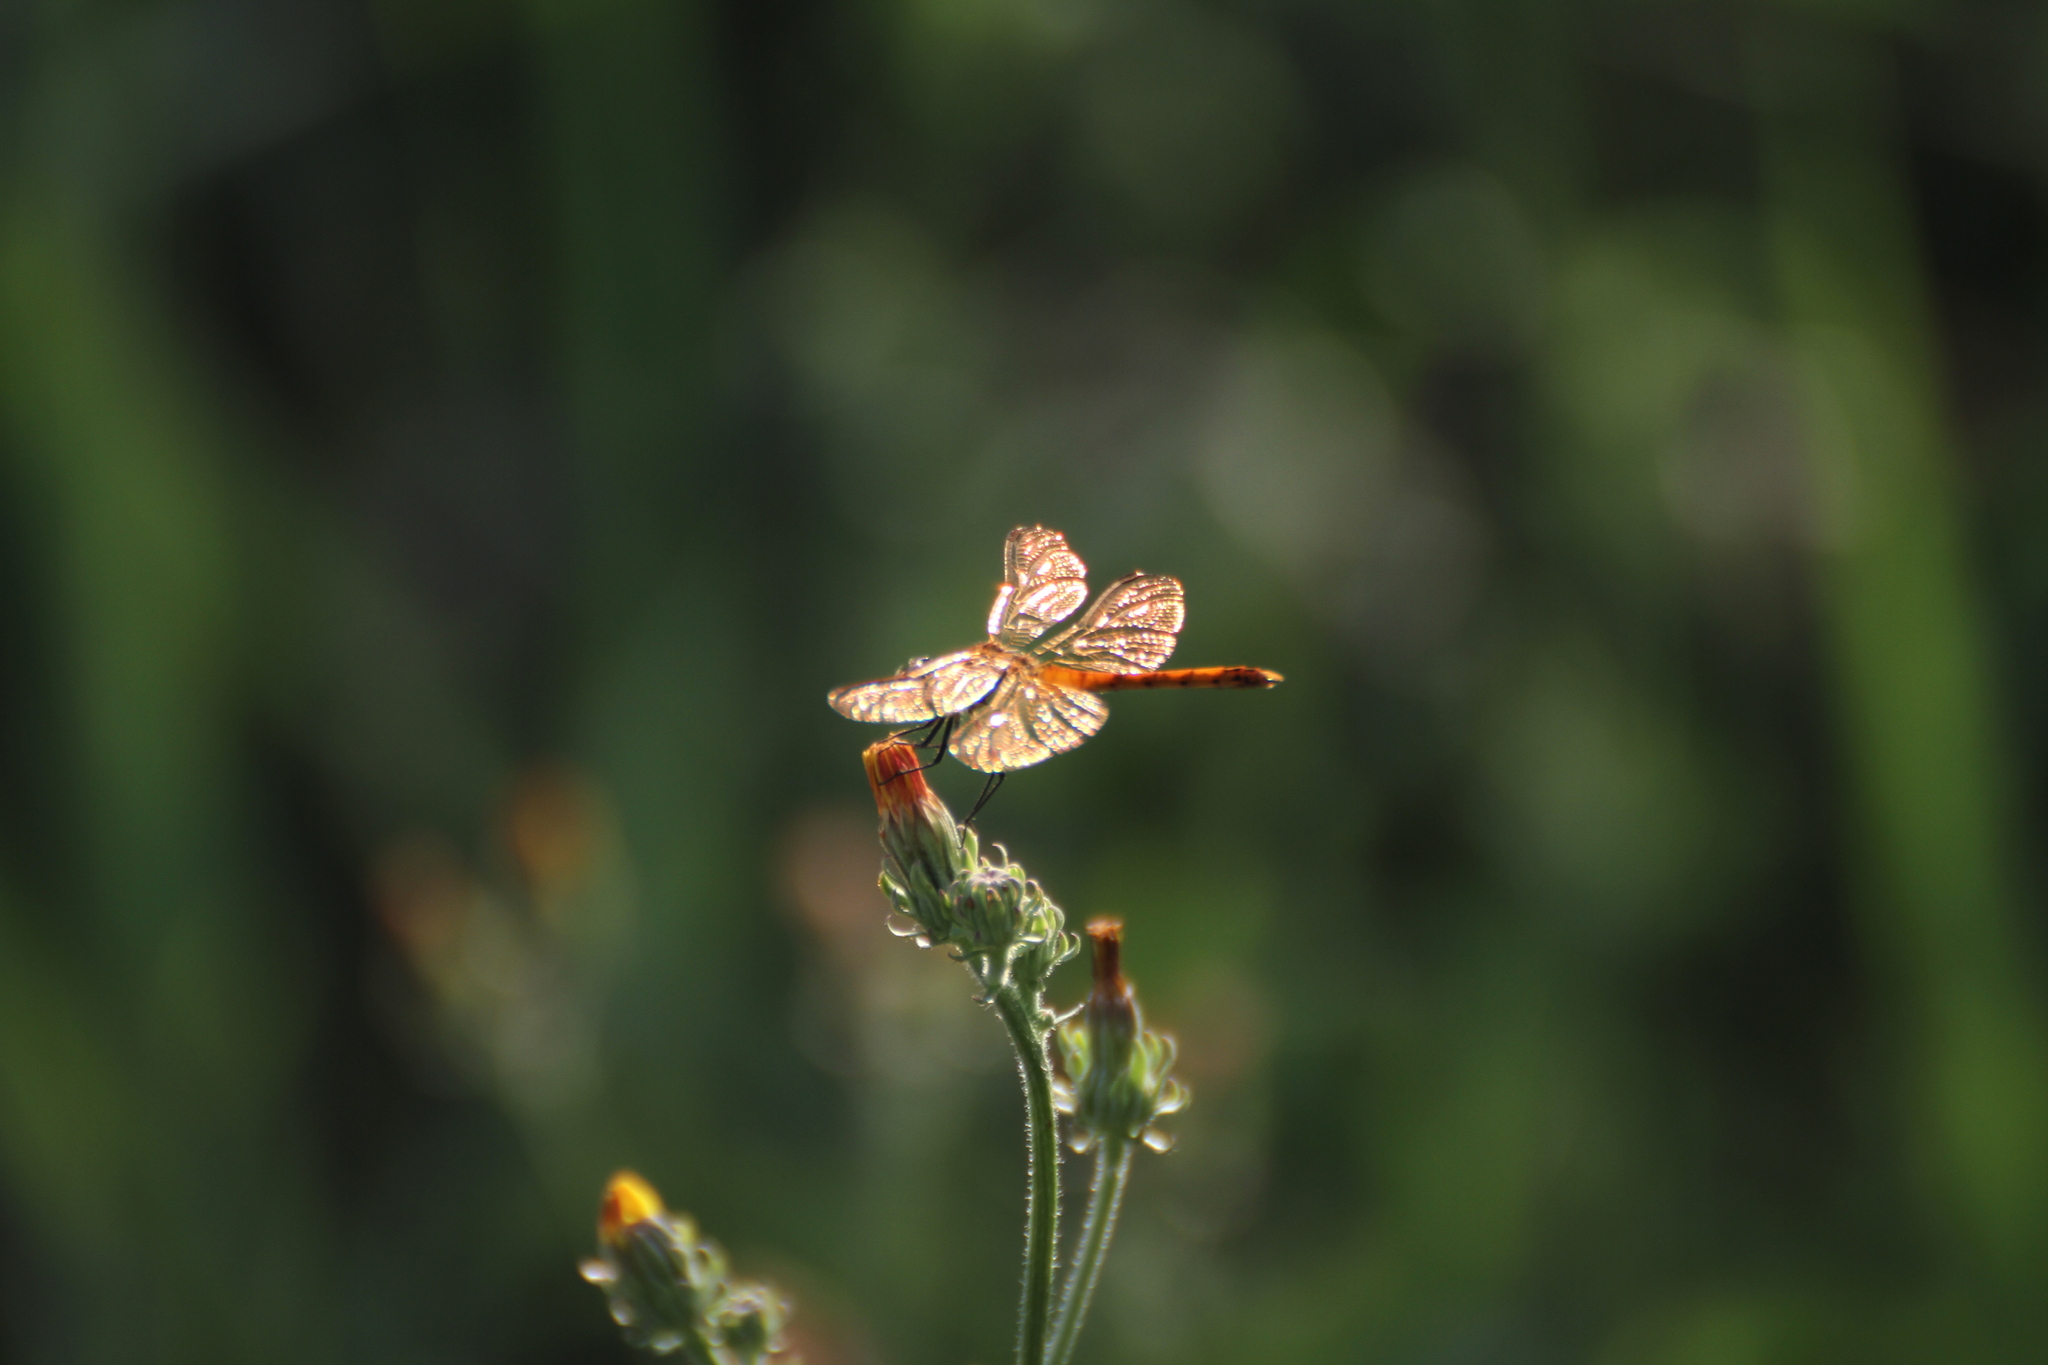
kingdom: Animalia
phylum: Arthropoda
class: Insecta
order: Odonata
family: Libellulidae
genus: Sympetrum
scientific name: Sympetrum depressiusculum
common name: Spotted darter
